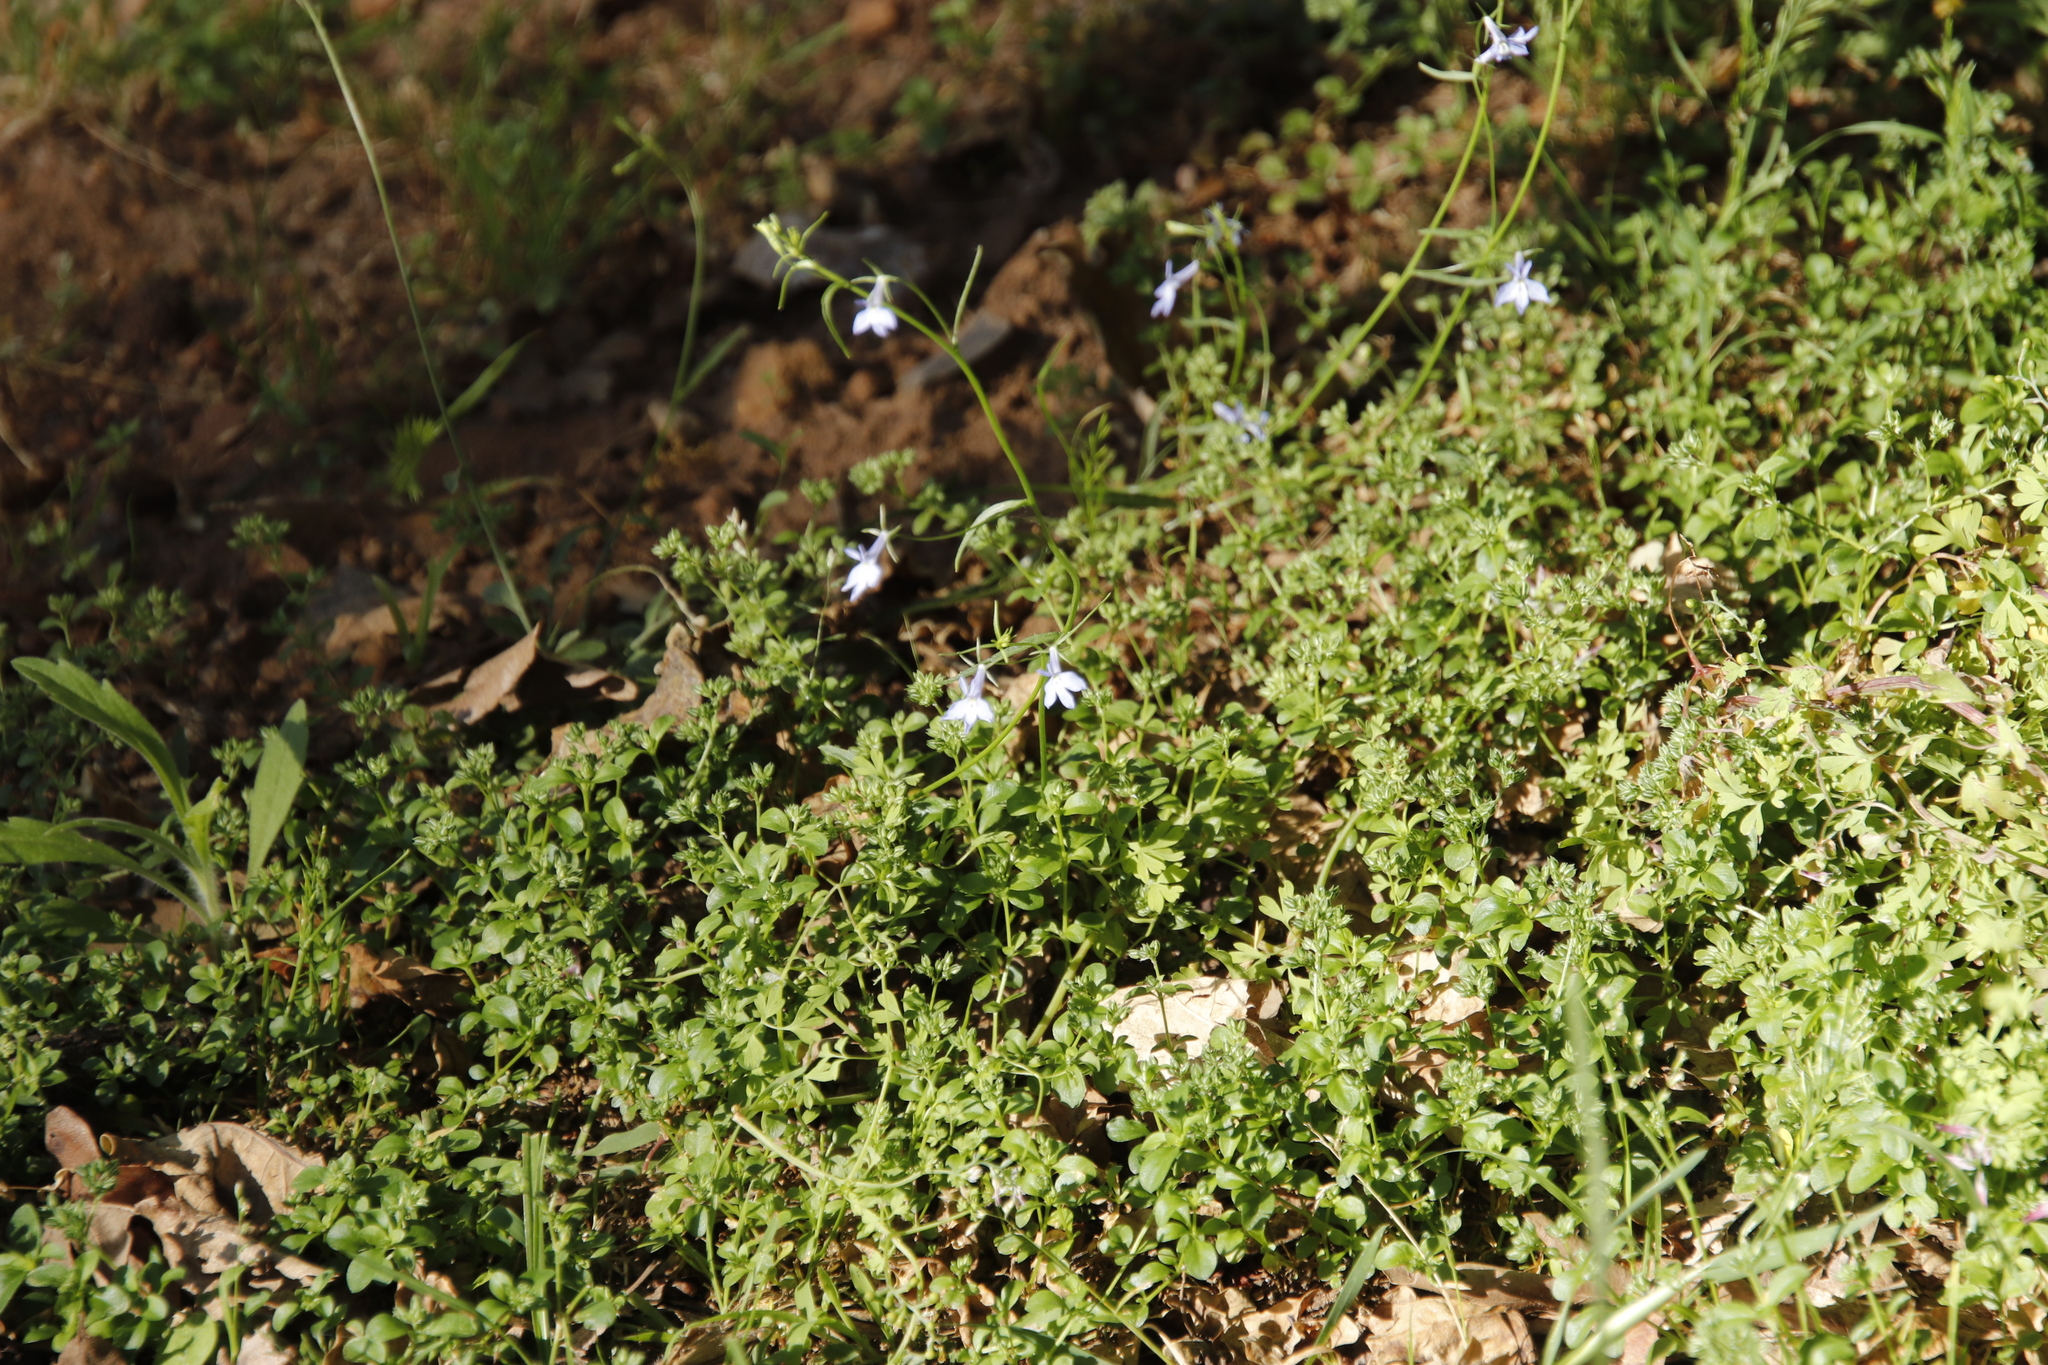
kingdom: Plantae
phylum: Tracheophyta
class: Magnoliopsida
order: Asterales
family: Campanulaceae
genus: Lobelia
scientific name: Lobelia erinus
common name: Edging lobelia
